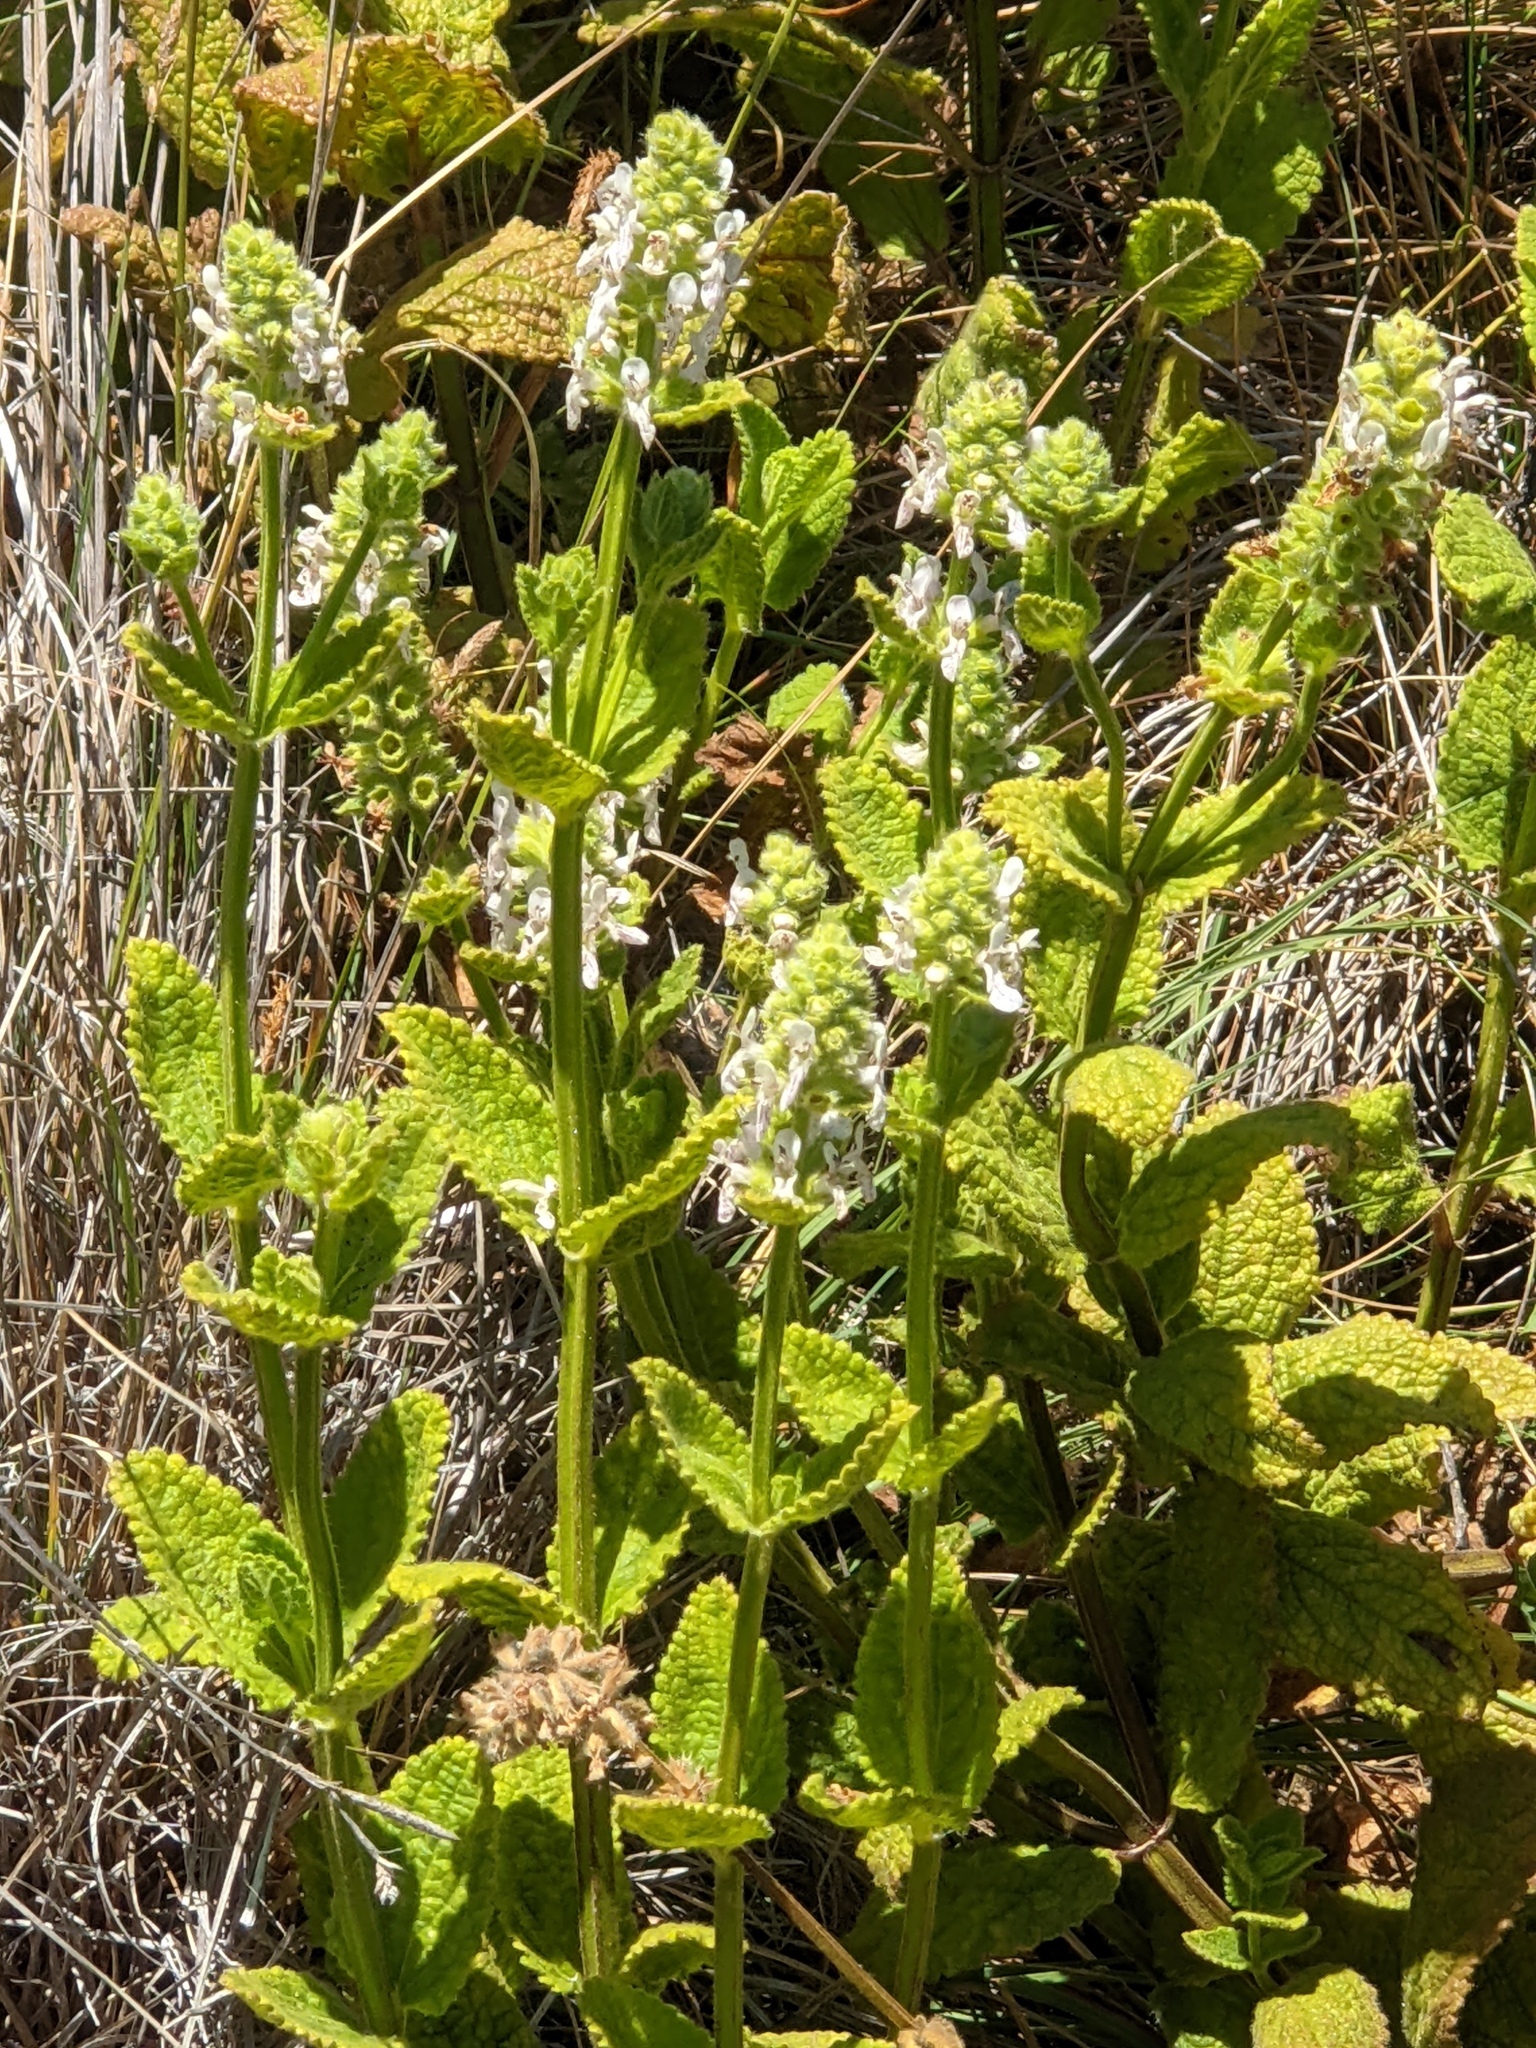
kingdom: Plantae
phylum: Tracheophyta
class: Magnoliopsida
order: Lamiales
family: Lamiaceae
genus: Stachys
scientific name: Stachys pycnantha
